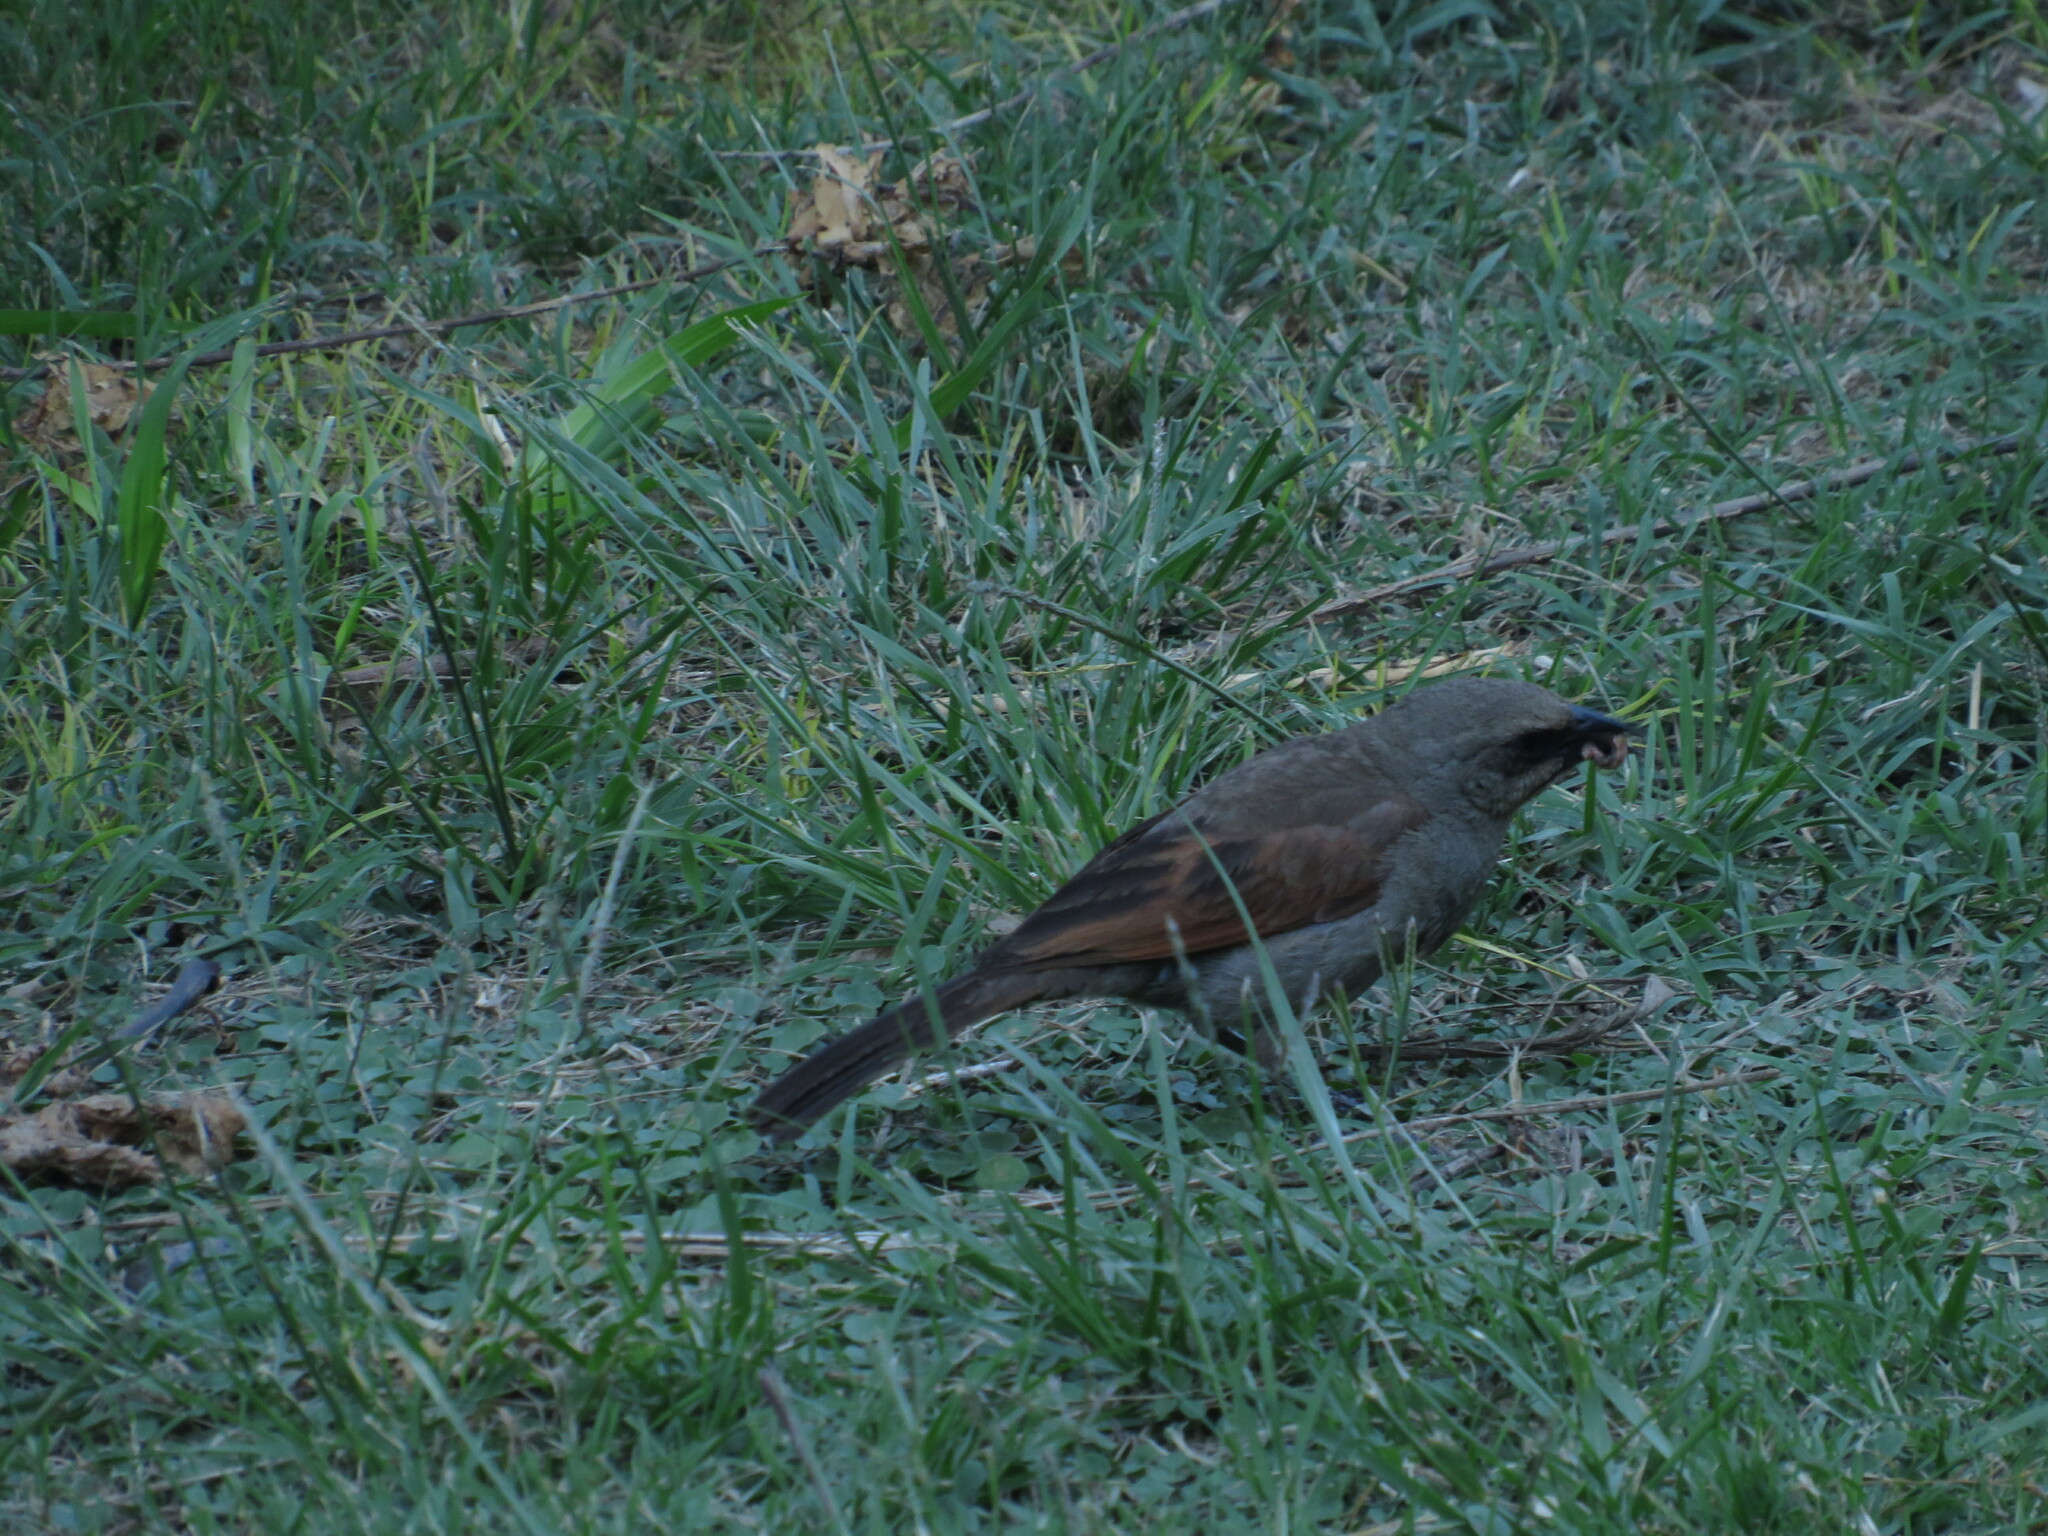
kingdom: Animalia
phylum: Chordata
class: Aves
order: Passeriformes
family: Icteridae
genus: Agelaioides
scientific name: Agelaioides badius
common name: Baywing
